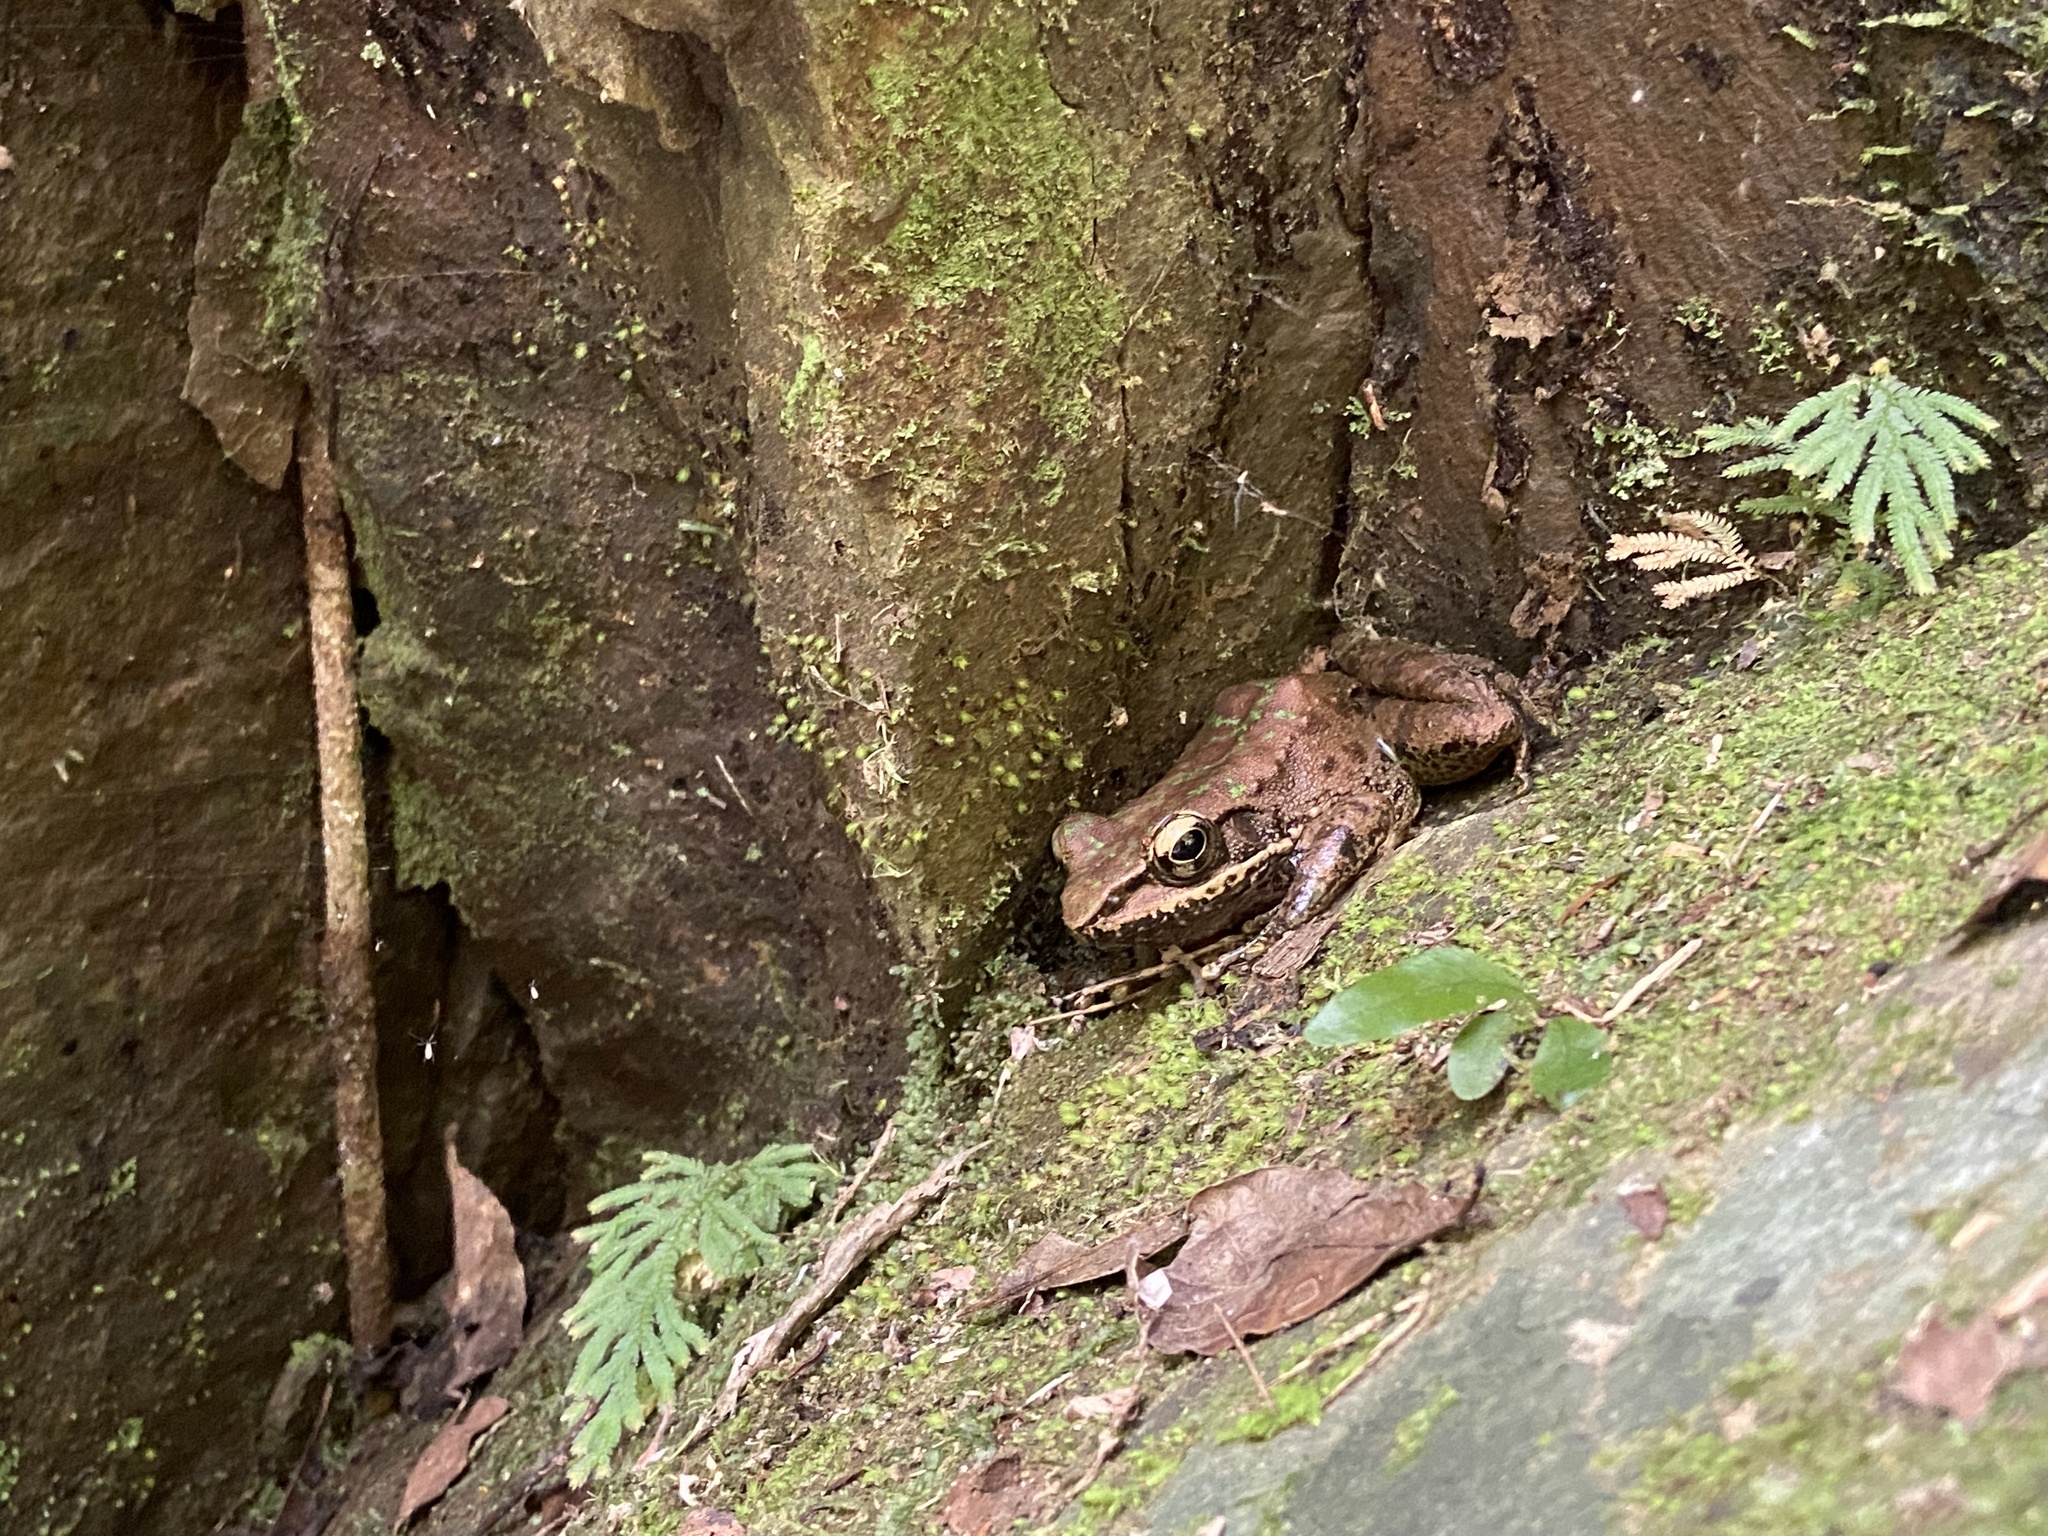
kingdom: Animalia
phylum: Chordata
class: Amphibia
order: Anura
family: Ranidae
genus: Odorrana
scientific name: Odorrana swinhoana
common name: Bangkimtsing frog
